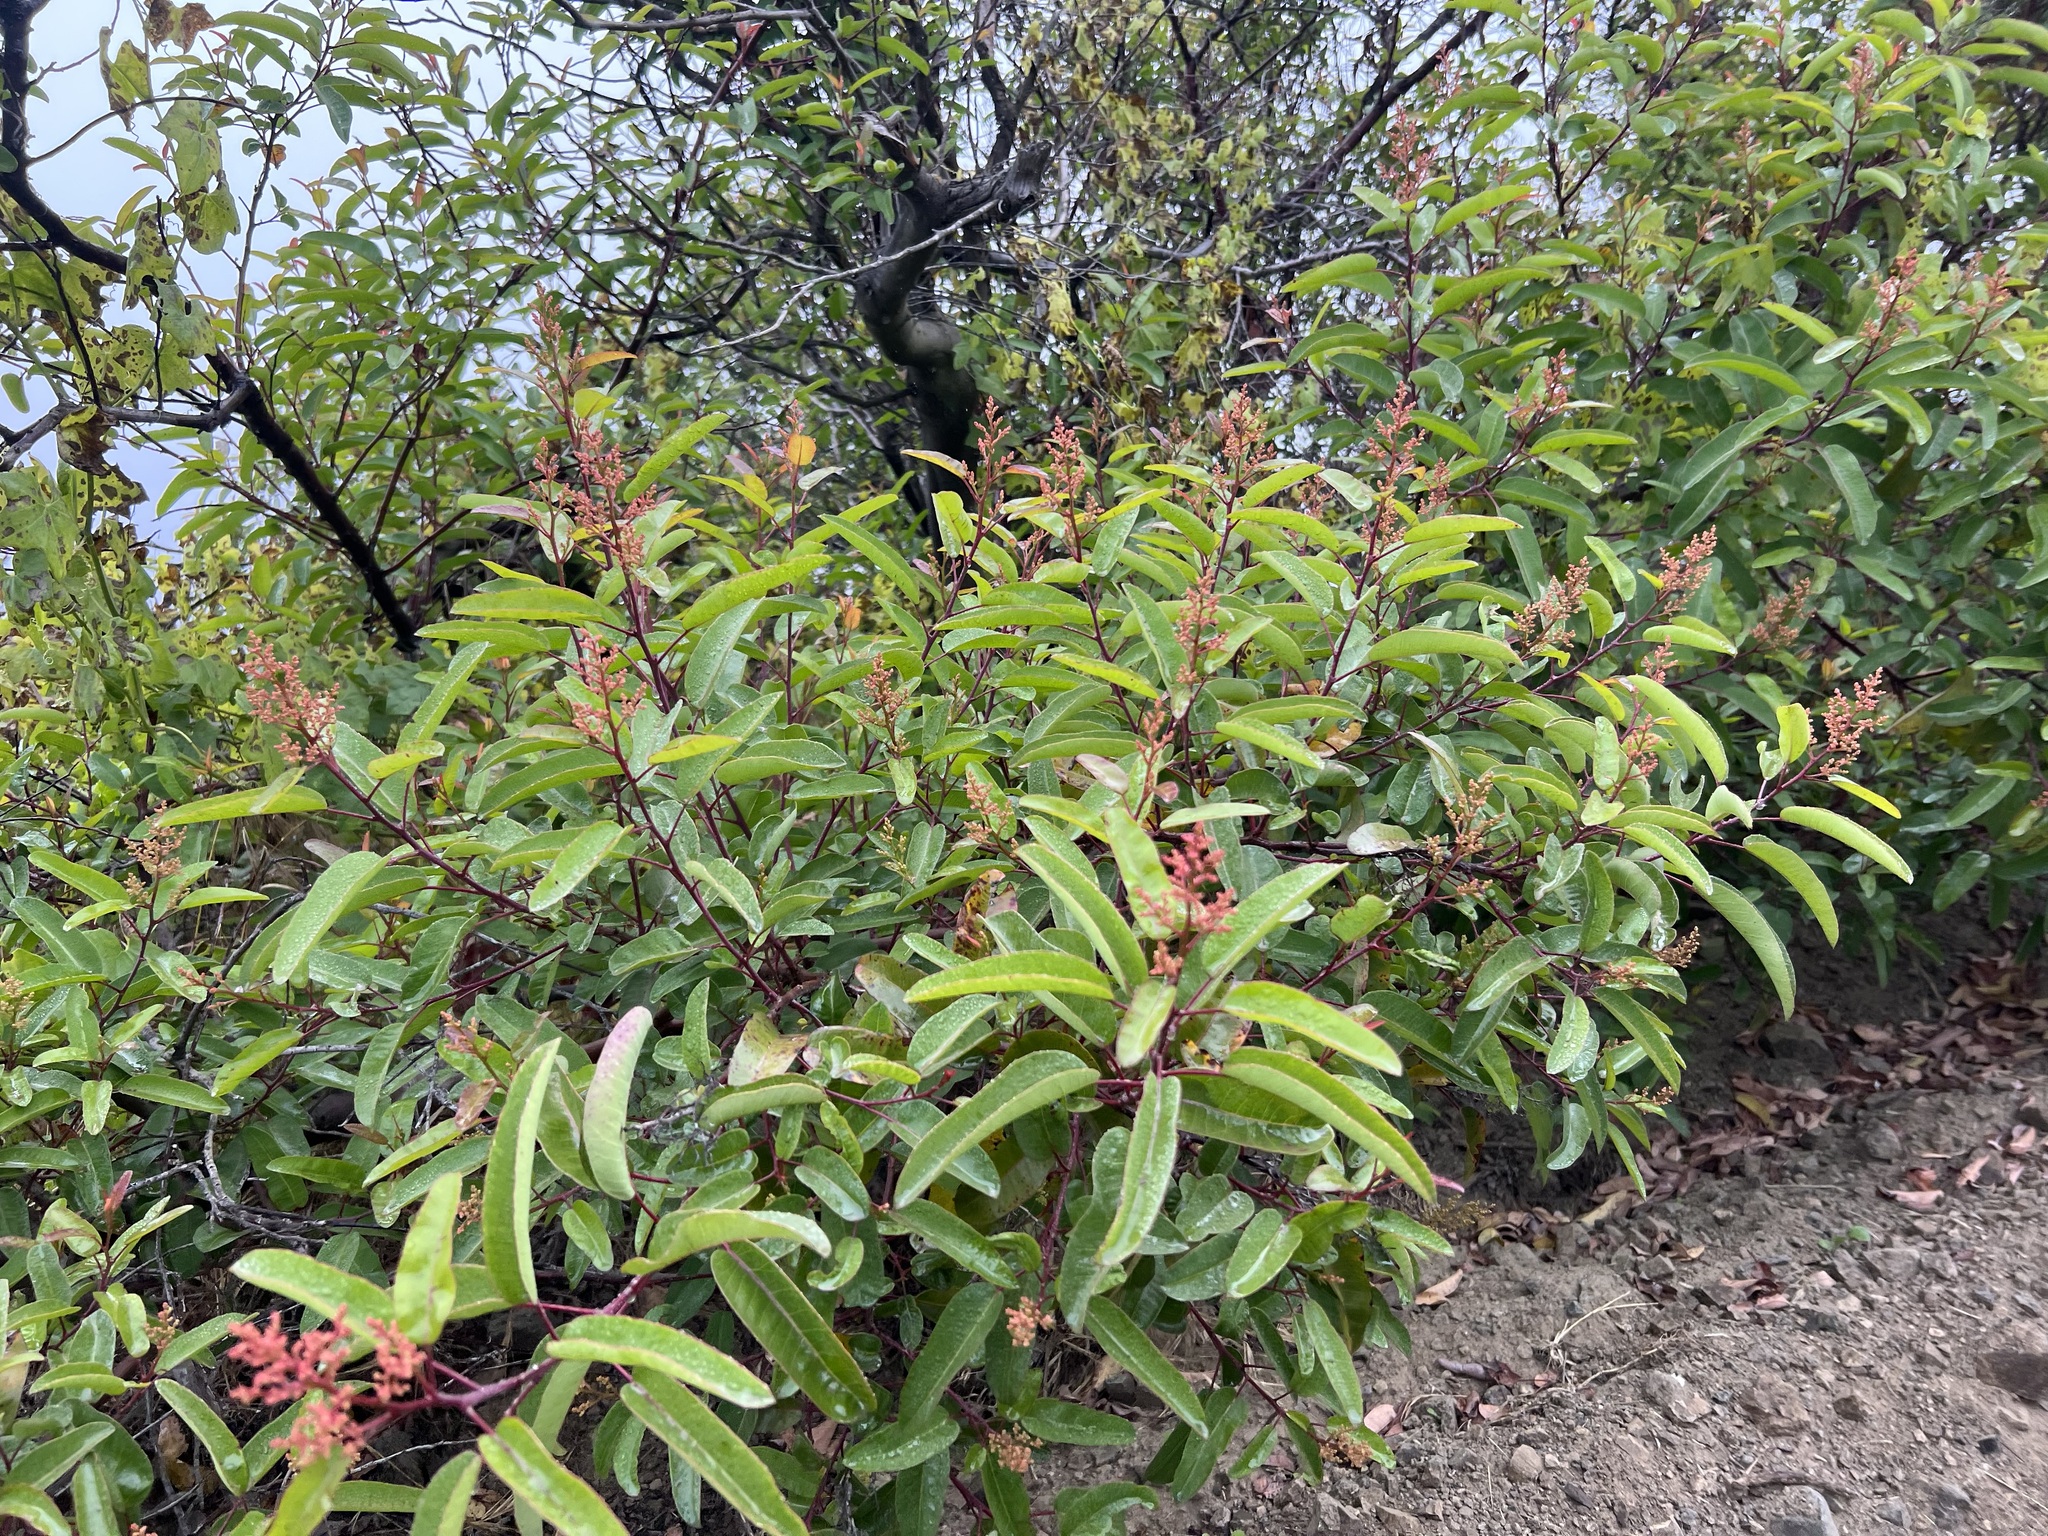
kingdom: Plantae
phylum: Tracheophyta
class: Magnoliopsida
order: Sapindales
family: Anacardiaceae
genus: Malosma
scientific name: Malosma laurina
